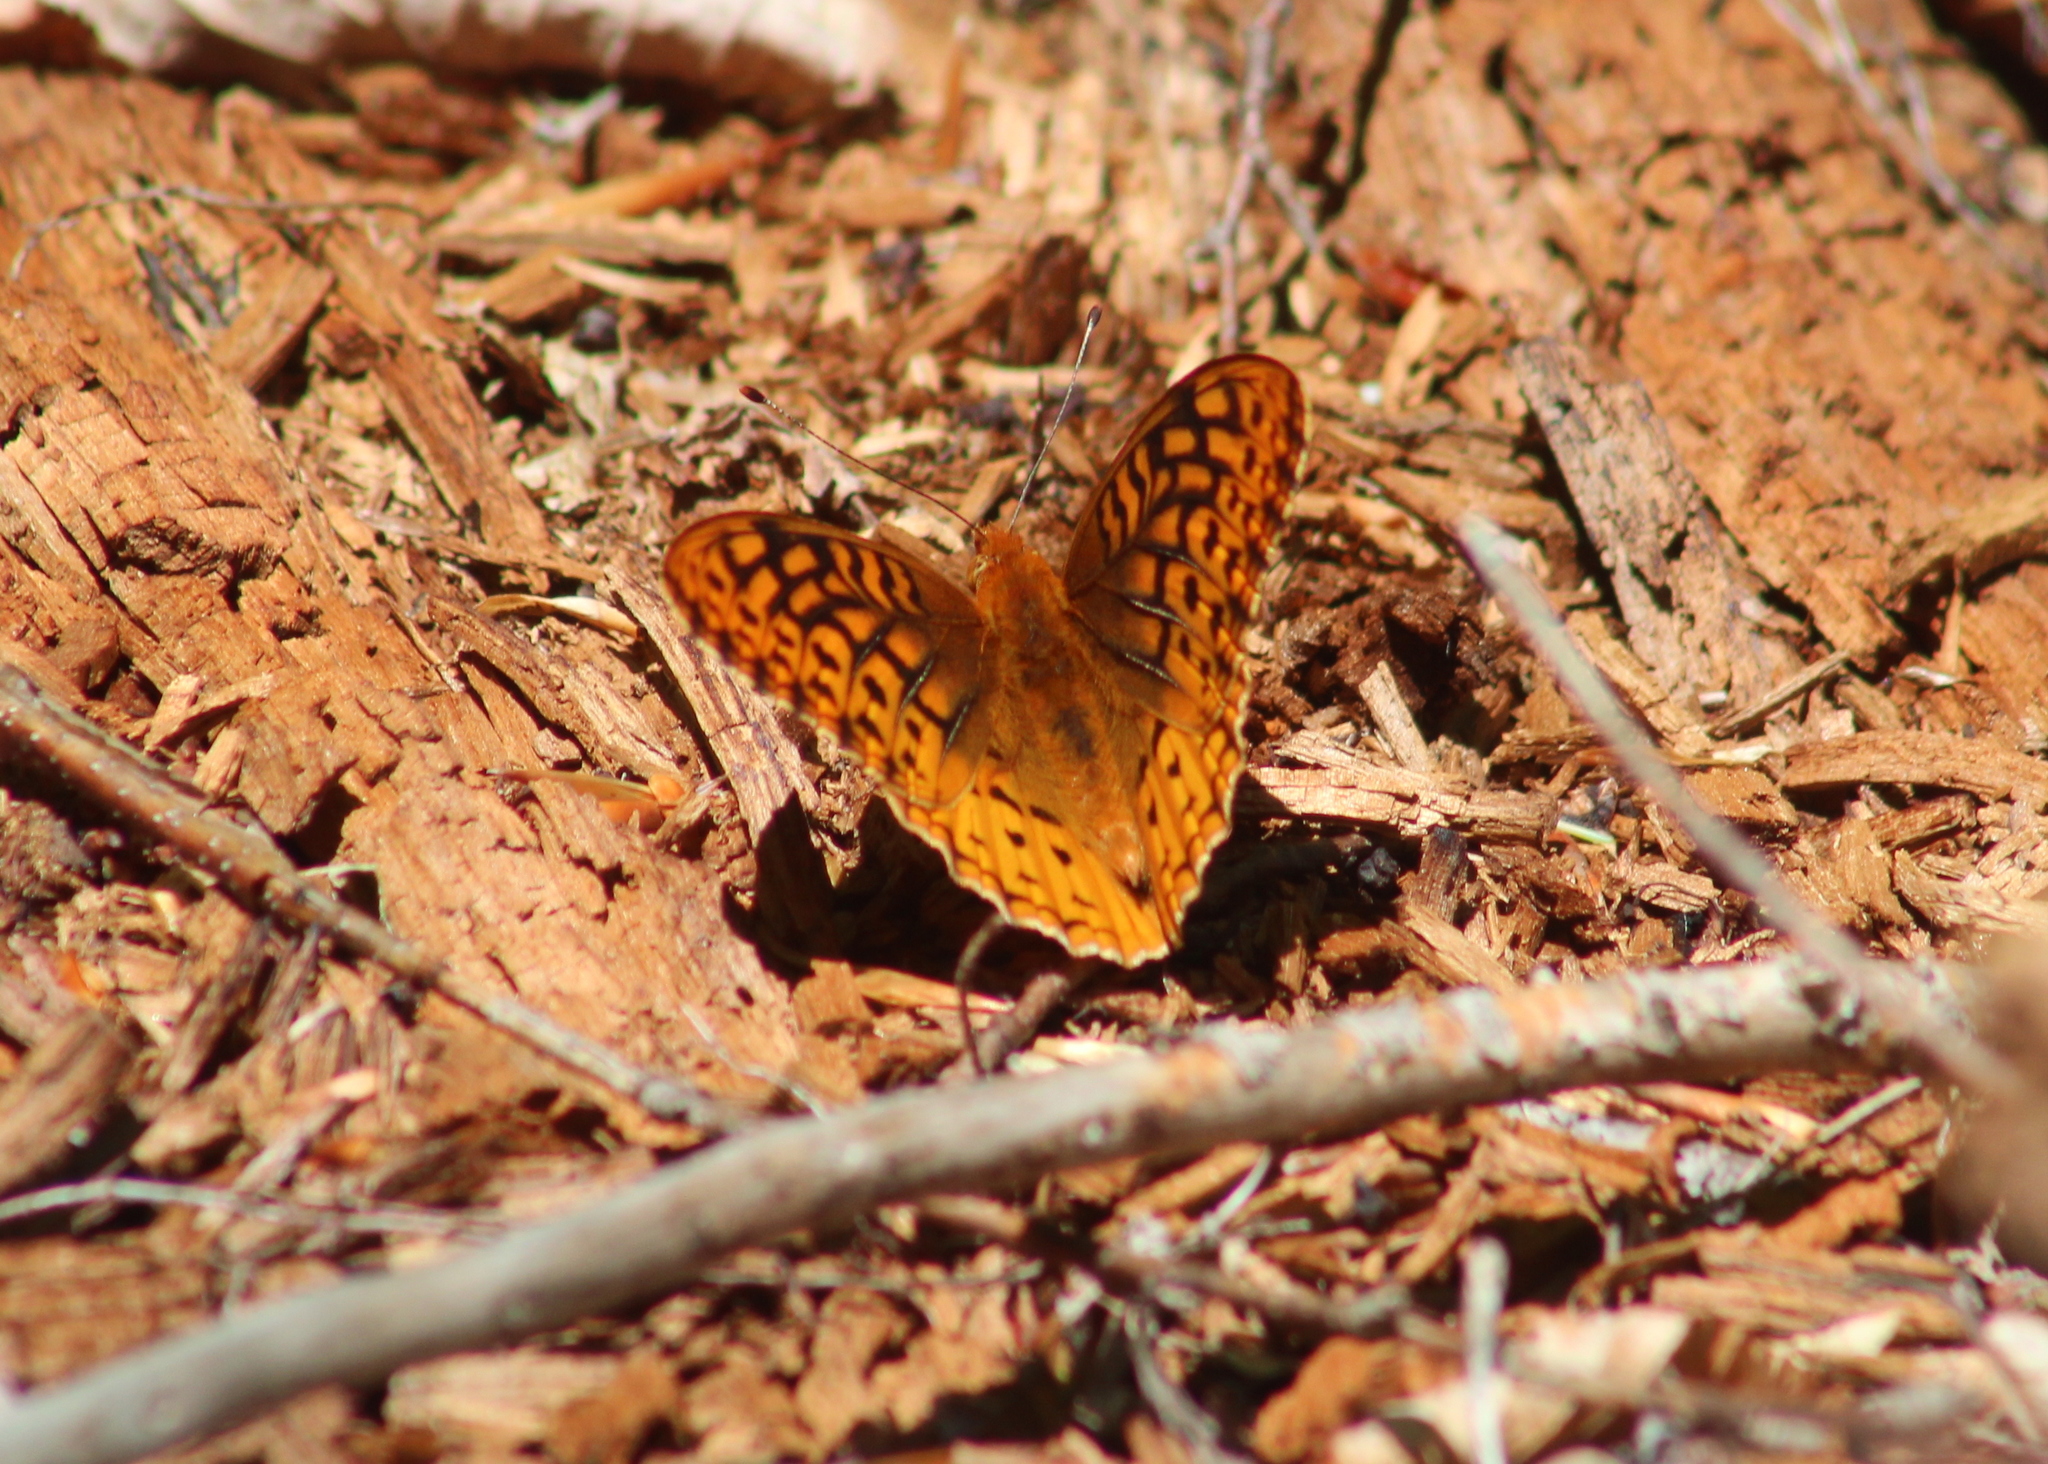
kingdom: Animalia
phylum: Arthropoda
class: Insecta
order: Lepidoptera
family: Nymphalidae
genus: Speyeria
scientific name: Speyeria cybele
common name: Great spangled fritillary
